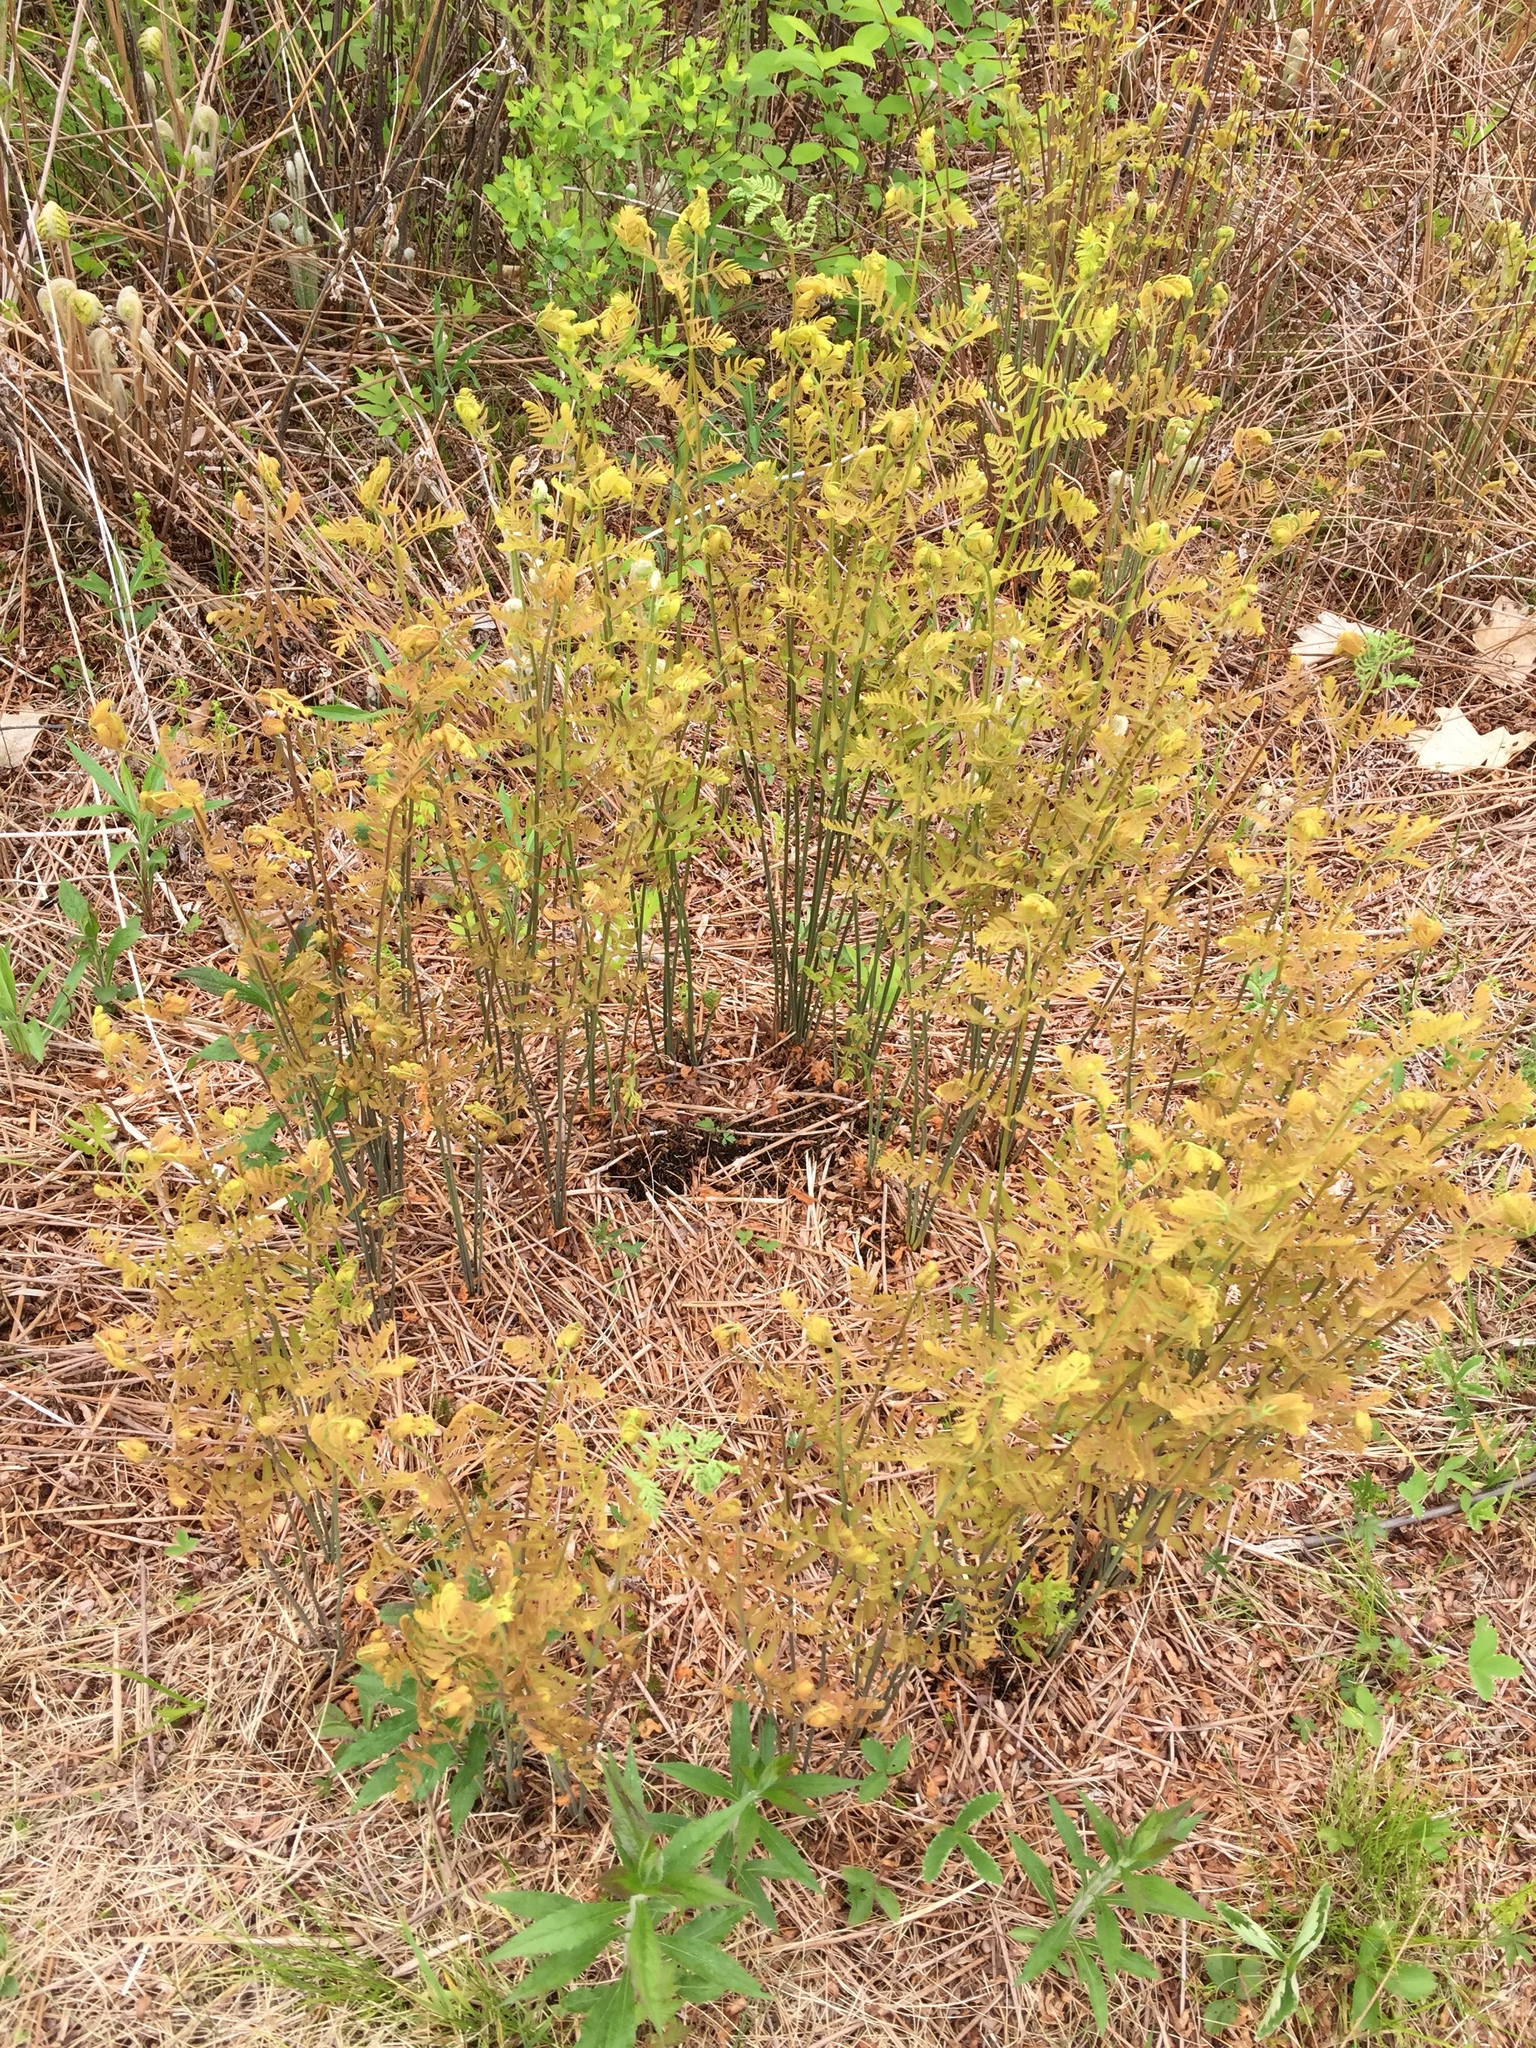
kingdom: Plantae
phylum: Tracheophyta
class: Polypodiopsida
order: Osmundales
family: Osmundaceae
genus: Osmunda
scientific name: Osmunda spectabilis
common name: American royal fern
